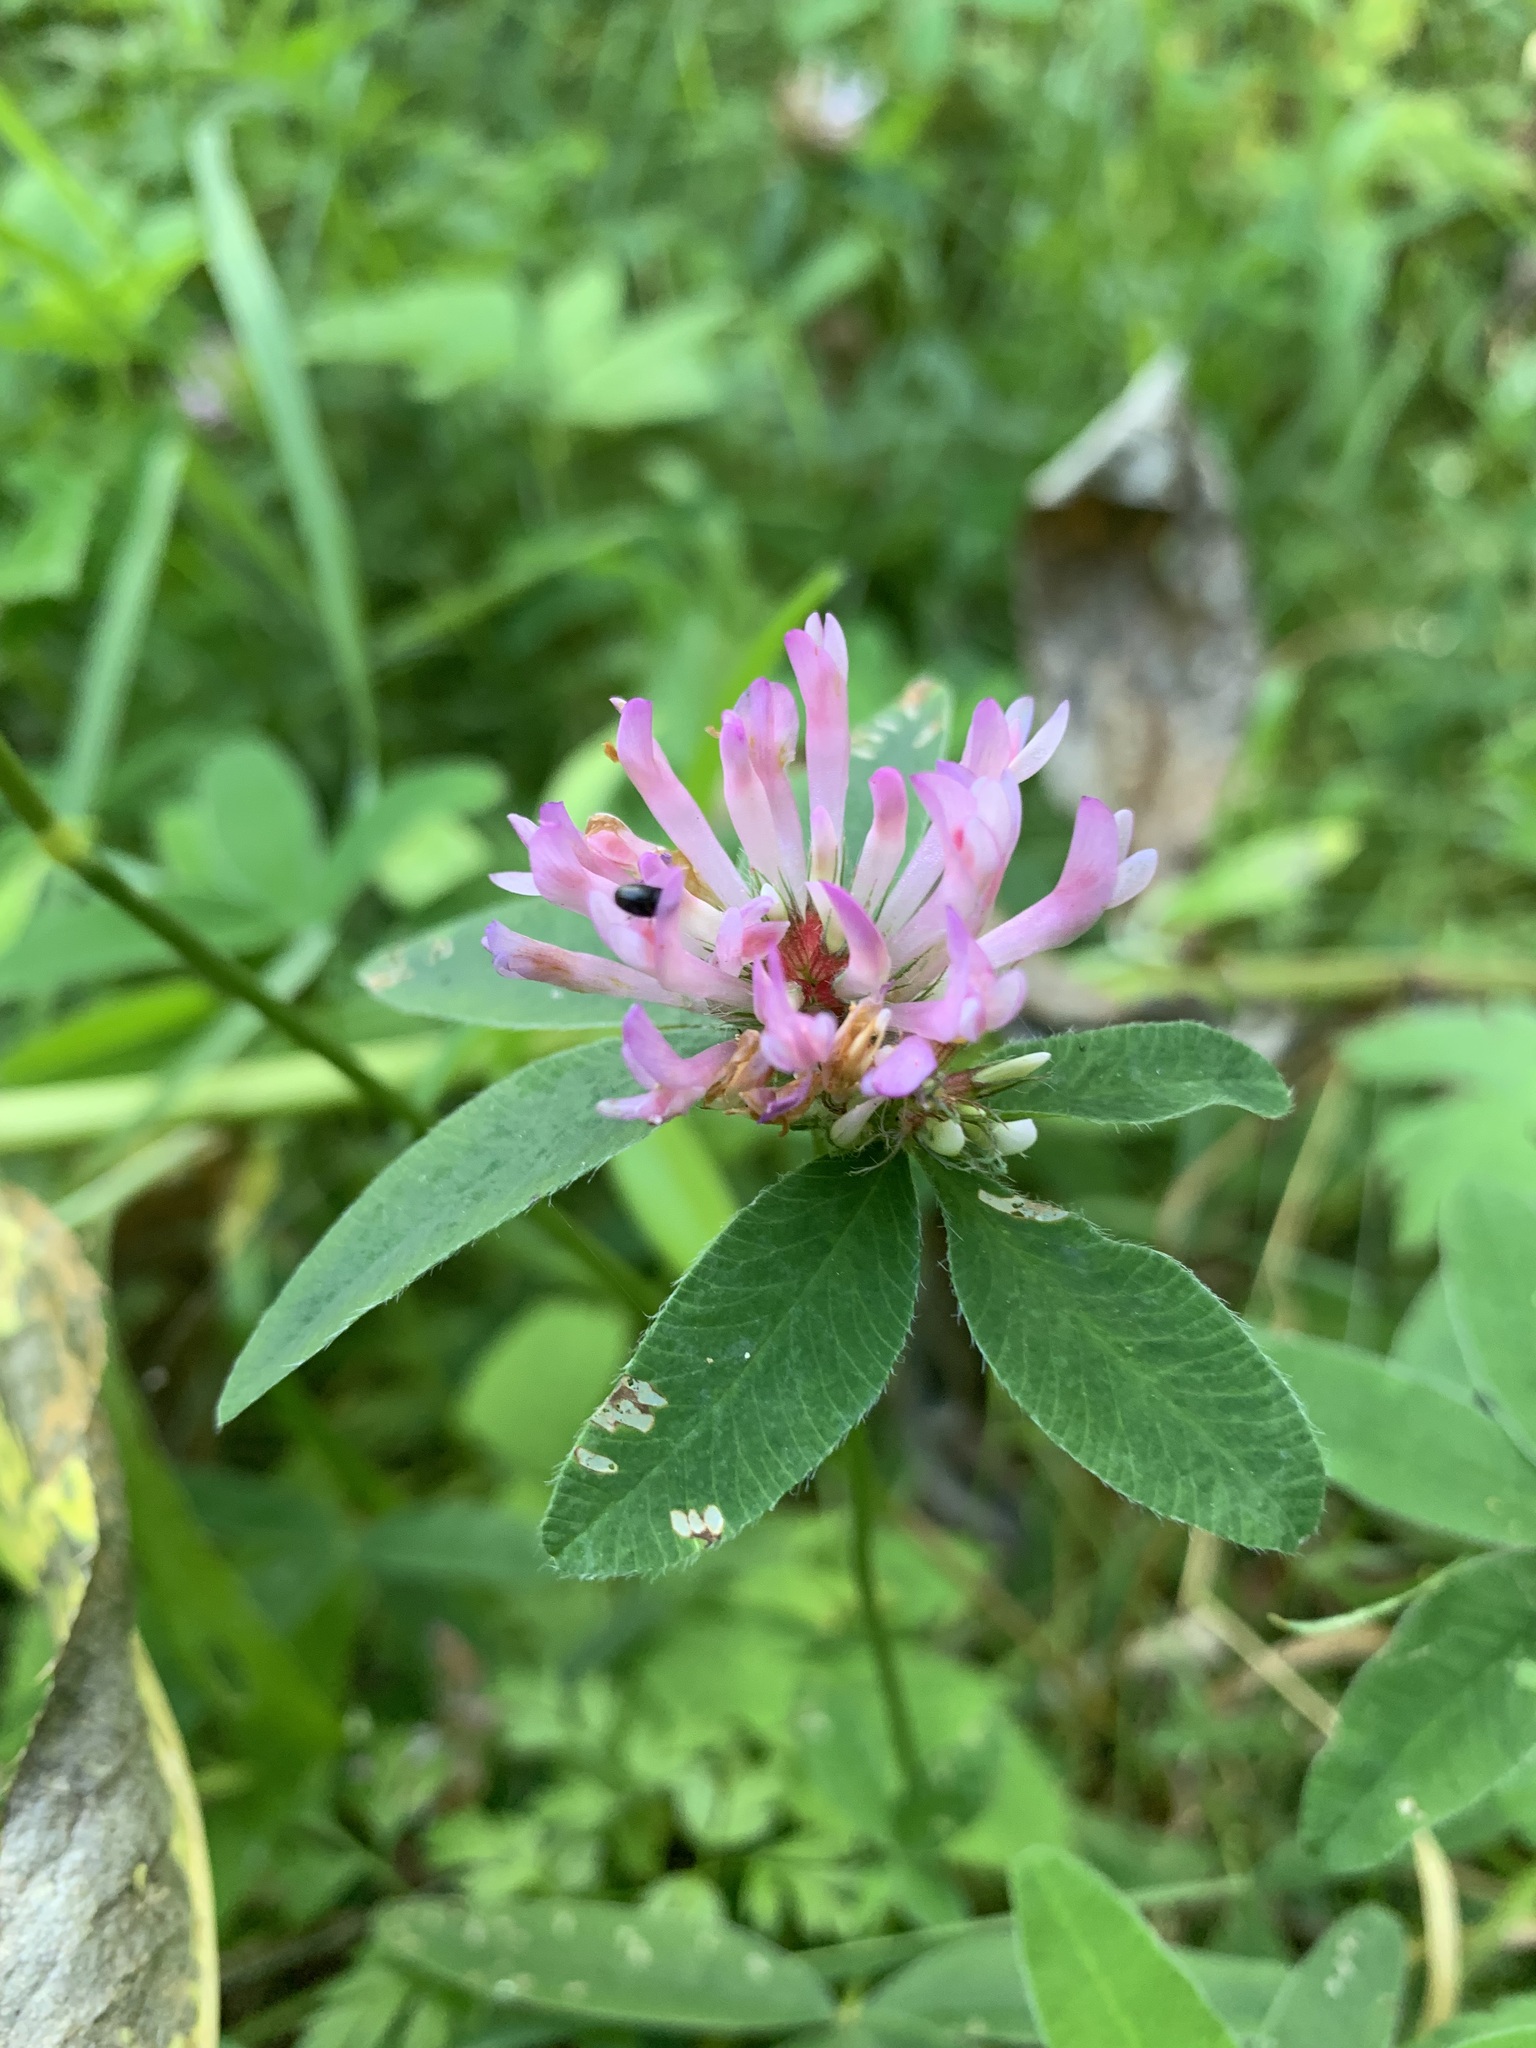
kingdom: Plantae
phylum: Tracheophyta
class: Magnoliopsida
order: Fabales
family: Fabaceae
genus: Trifolium
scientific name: Trifolium medium
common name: Zigzag clover
